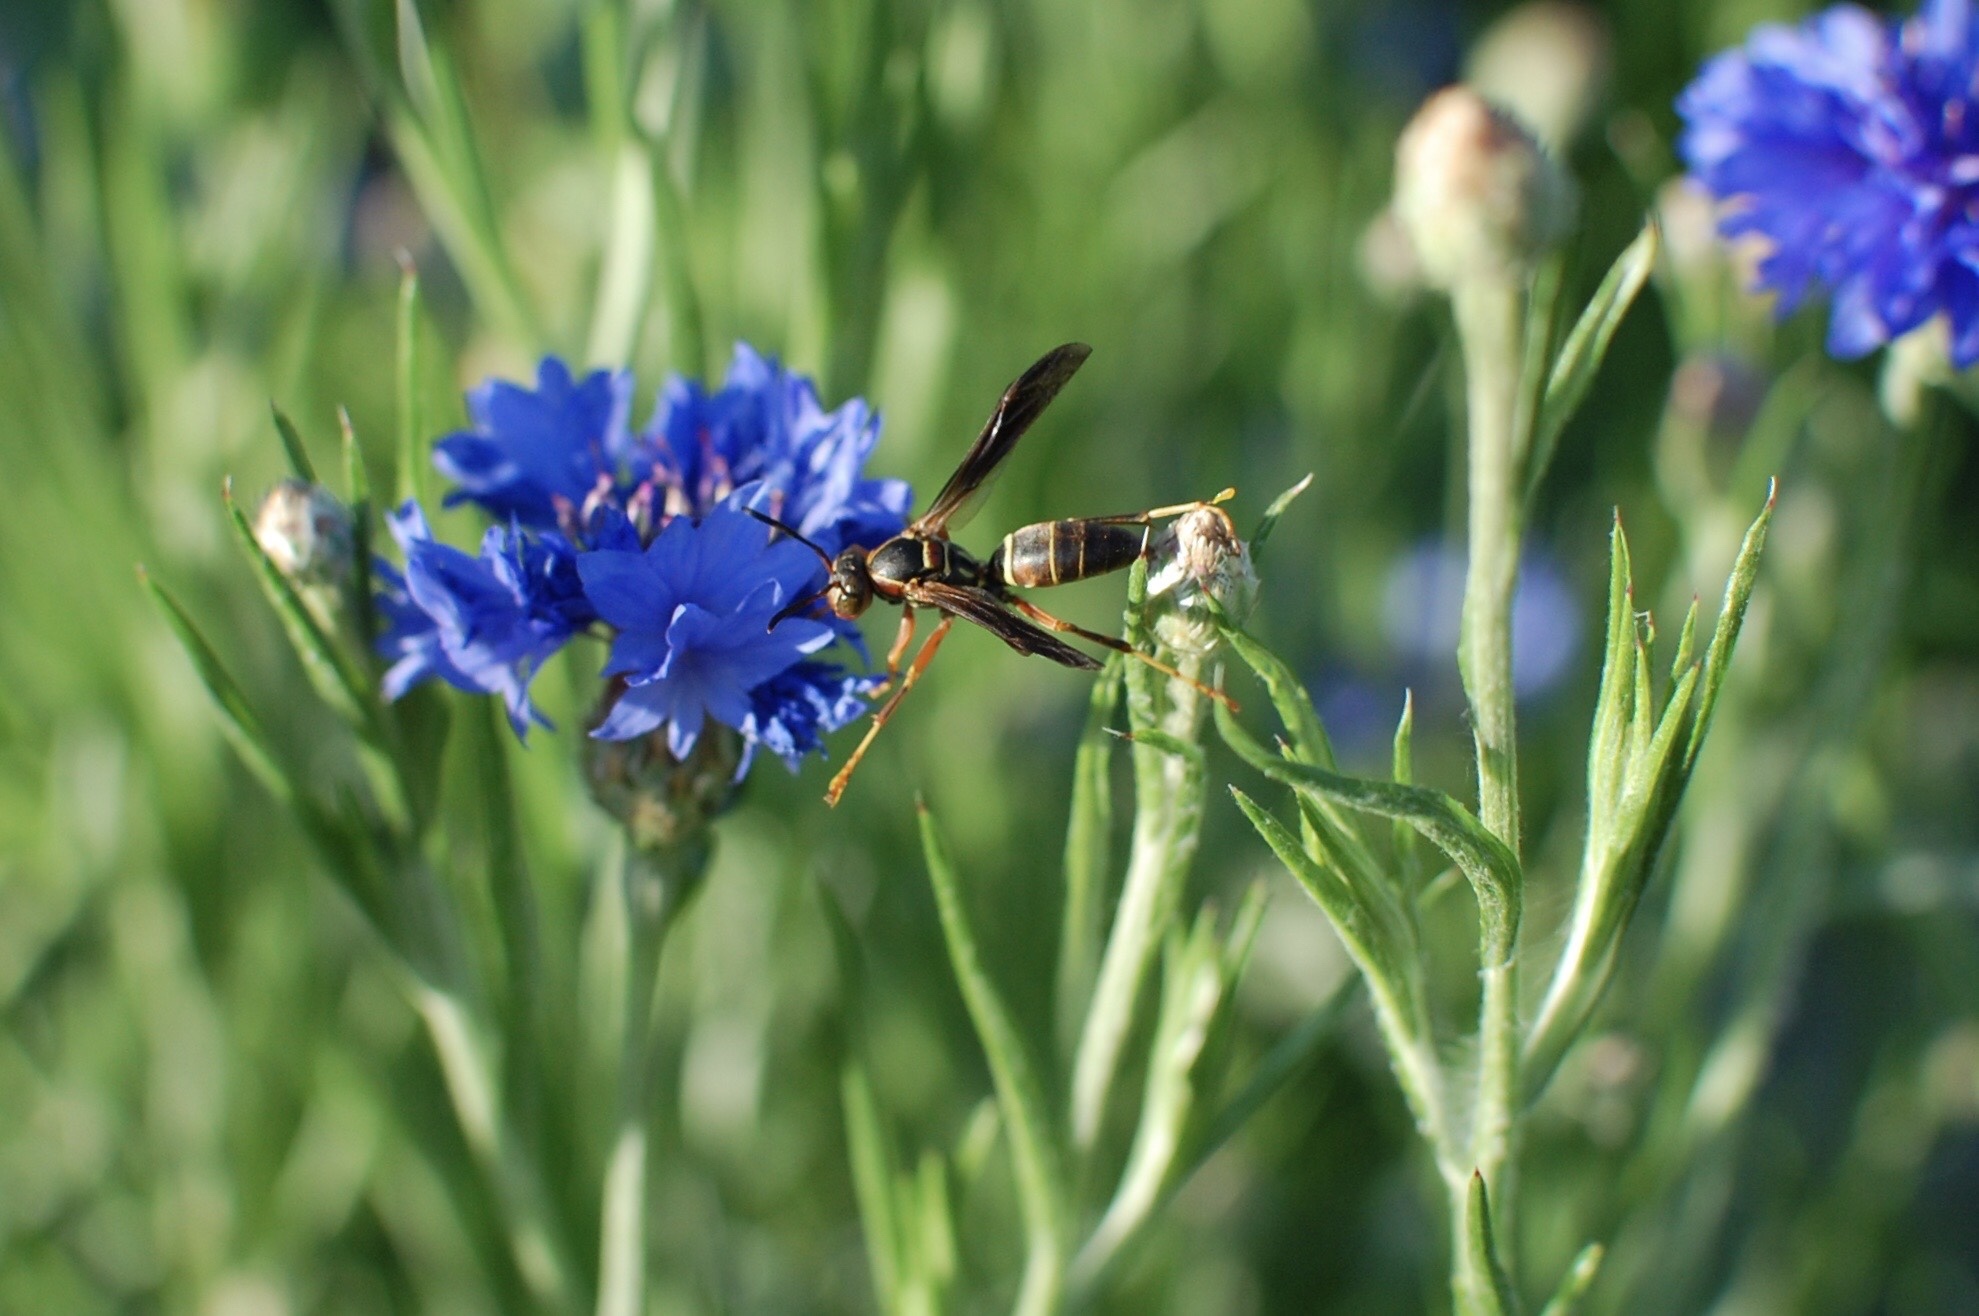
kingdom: Animalia
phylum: Arthropoda
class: Insecta
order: Hymenoptera
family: Eumenidae
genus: Polistes
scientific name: Polistes fuscatus
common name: Dark paper wasp
